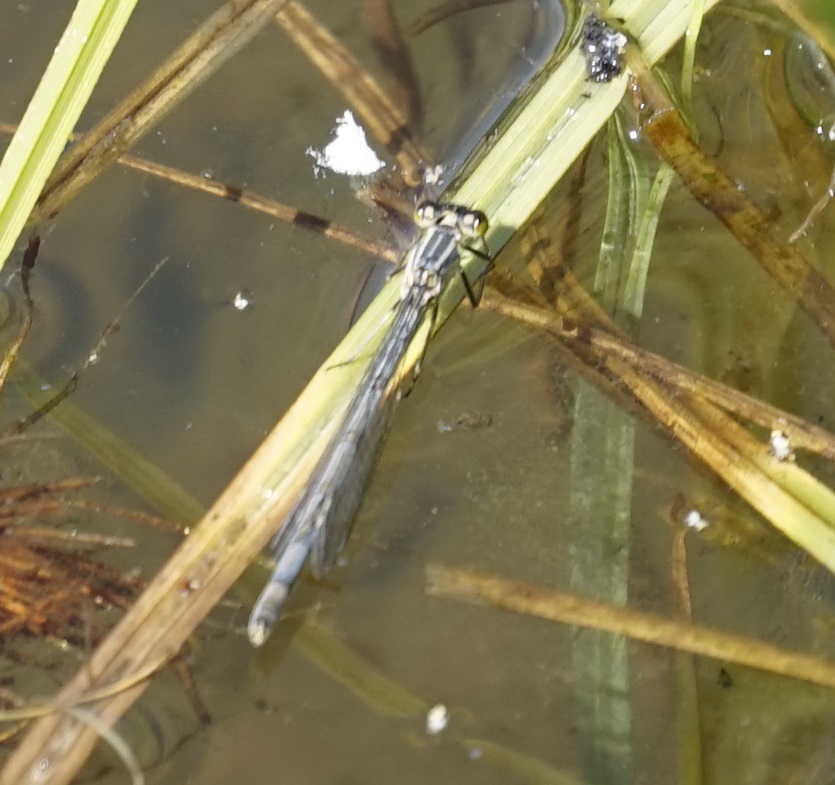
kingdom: Animalia
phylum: Arthropoda
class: Insecta
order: Odonata
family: Coenagrionidae
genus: Ischnura
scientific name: Ischnura heterosticta
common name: Common bluetail
